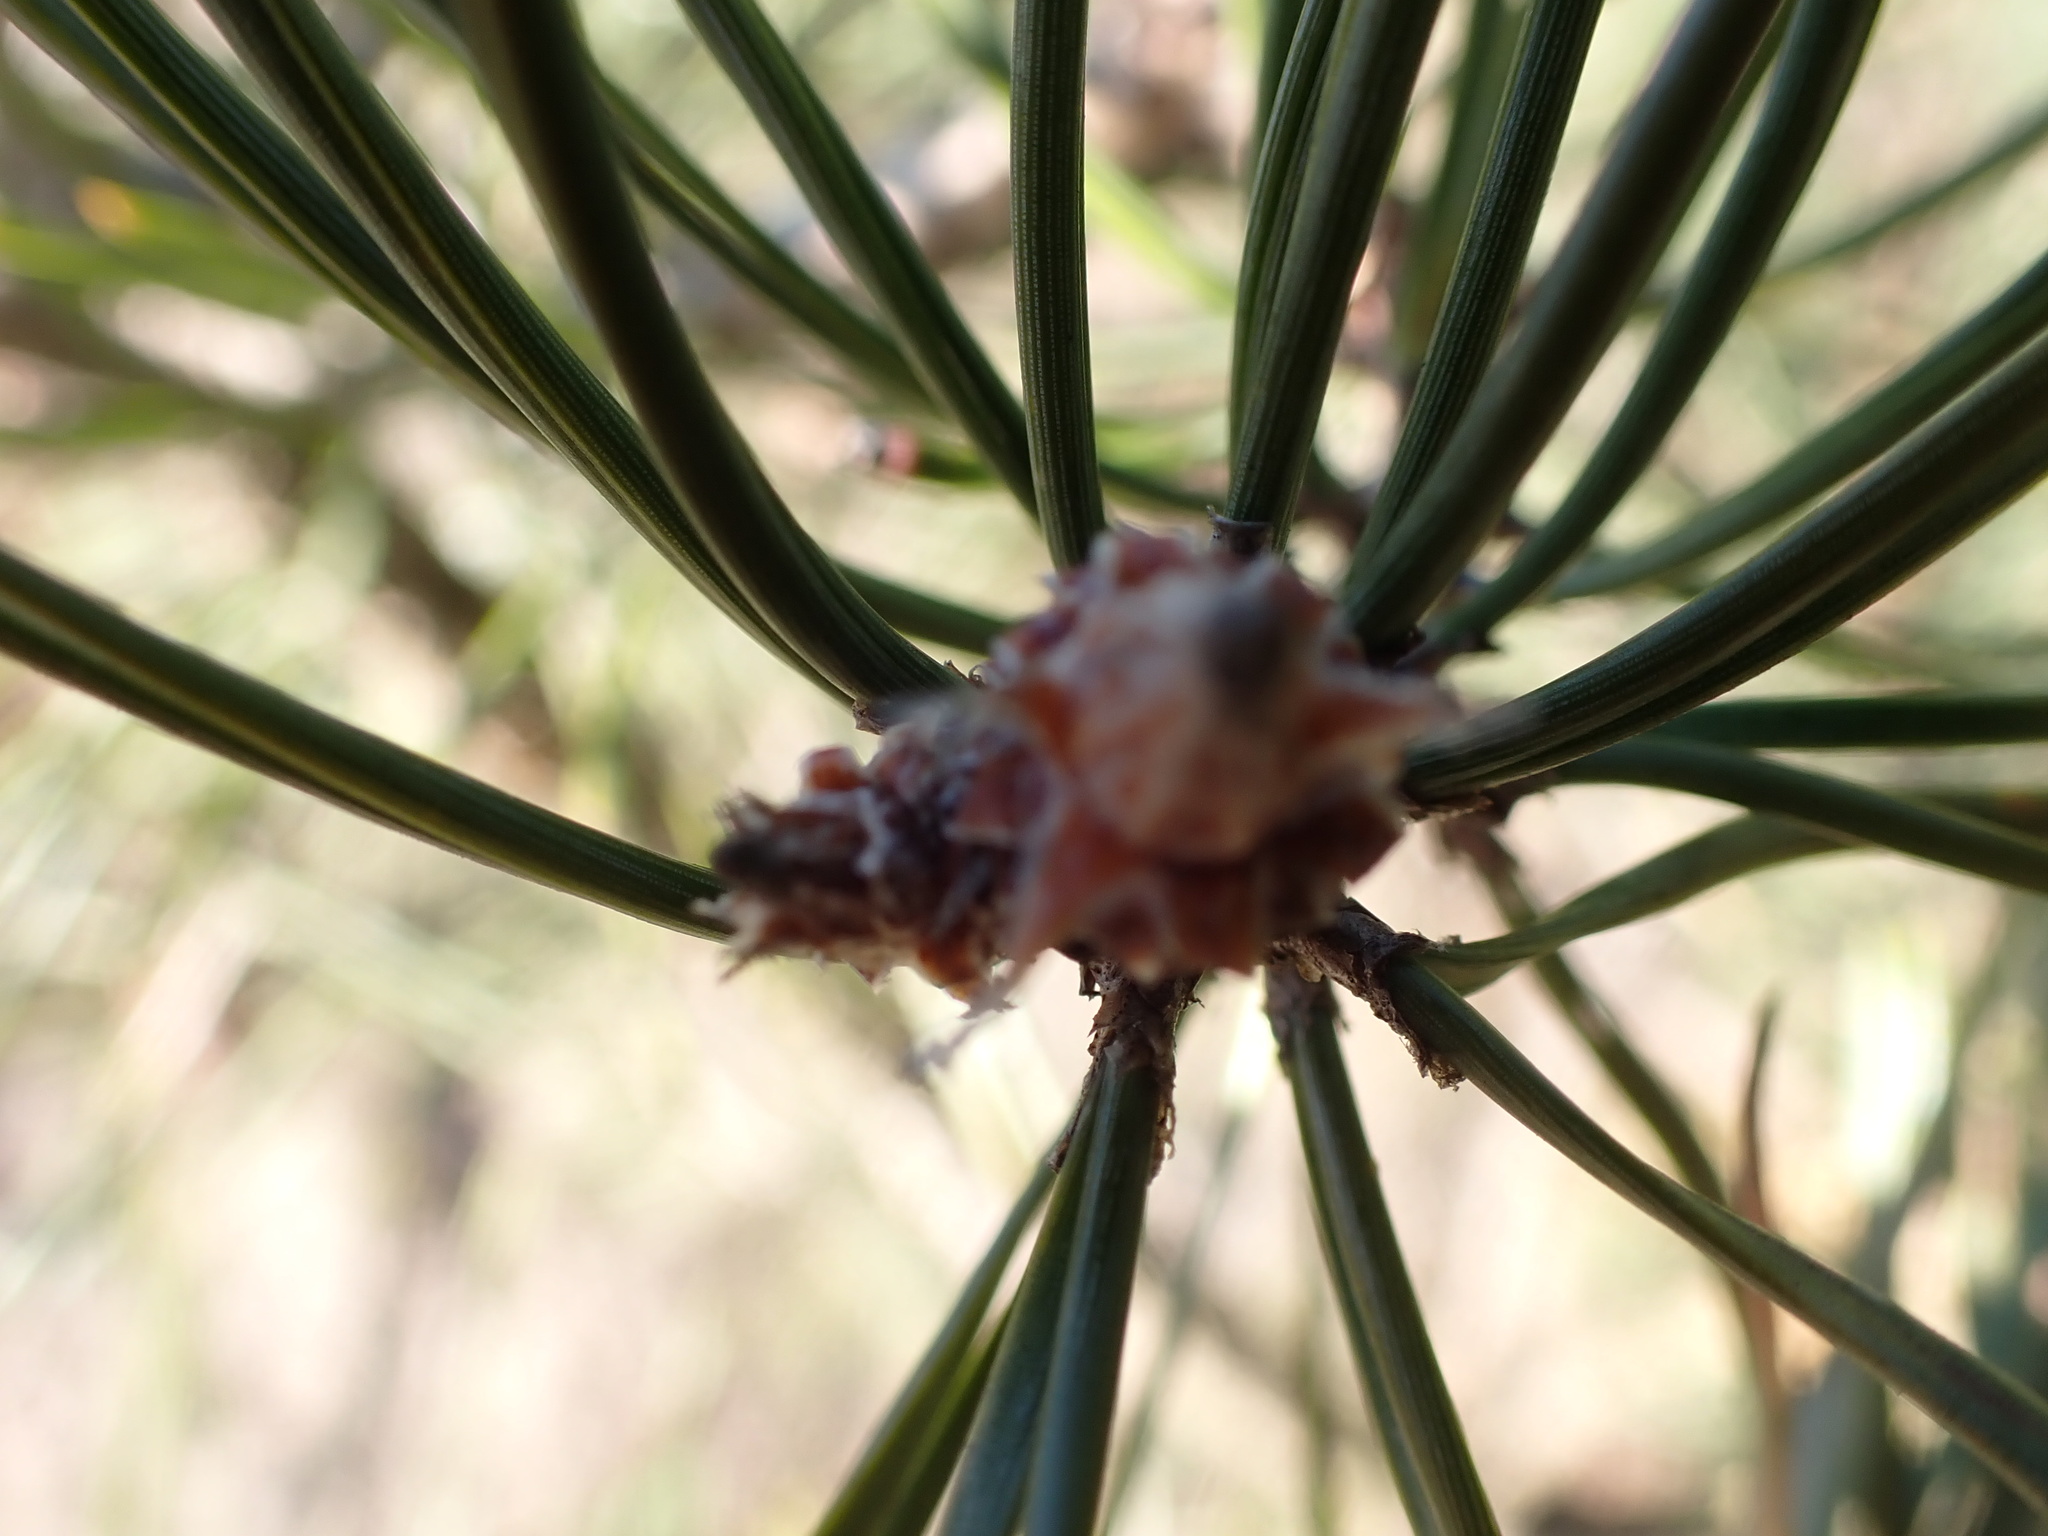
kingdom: Plantae
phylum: Tracheophyta
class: Pinopsida
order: Pinales
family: Pinaceae
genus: Pinus
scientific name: Pinus sylvestris
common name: Scots pine
